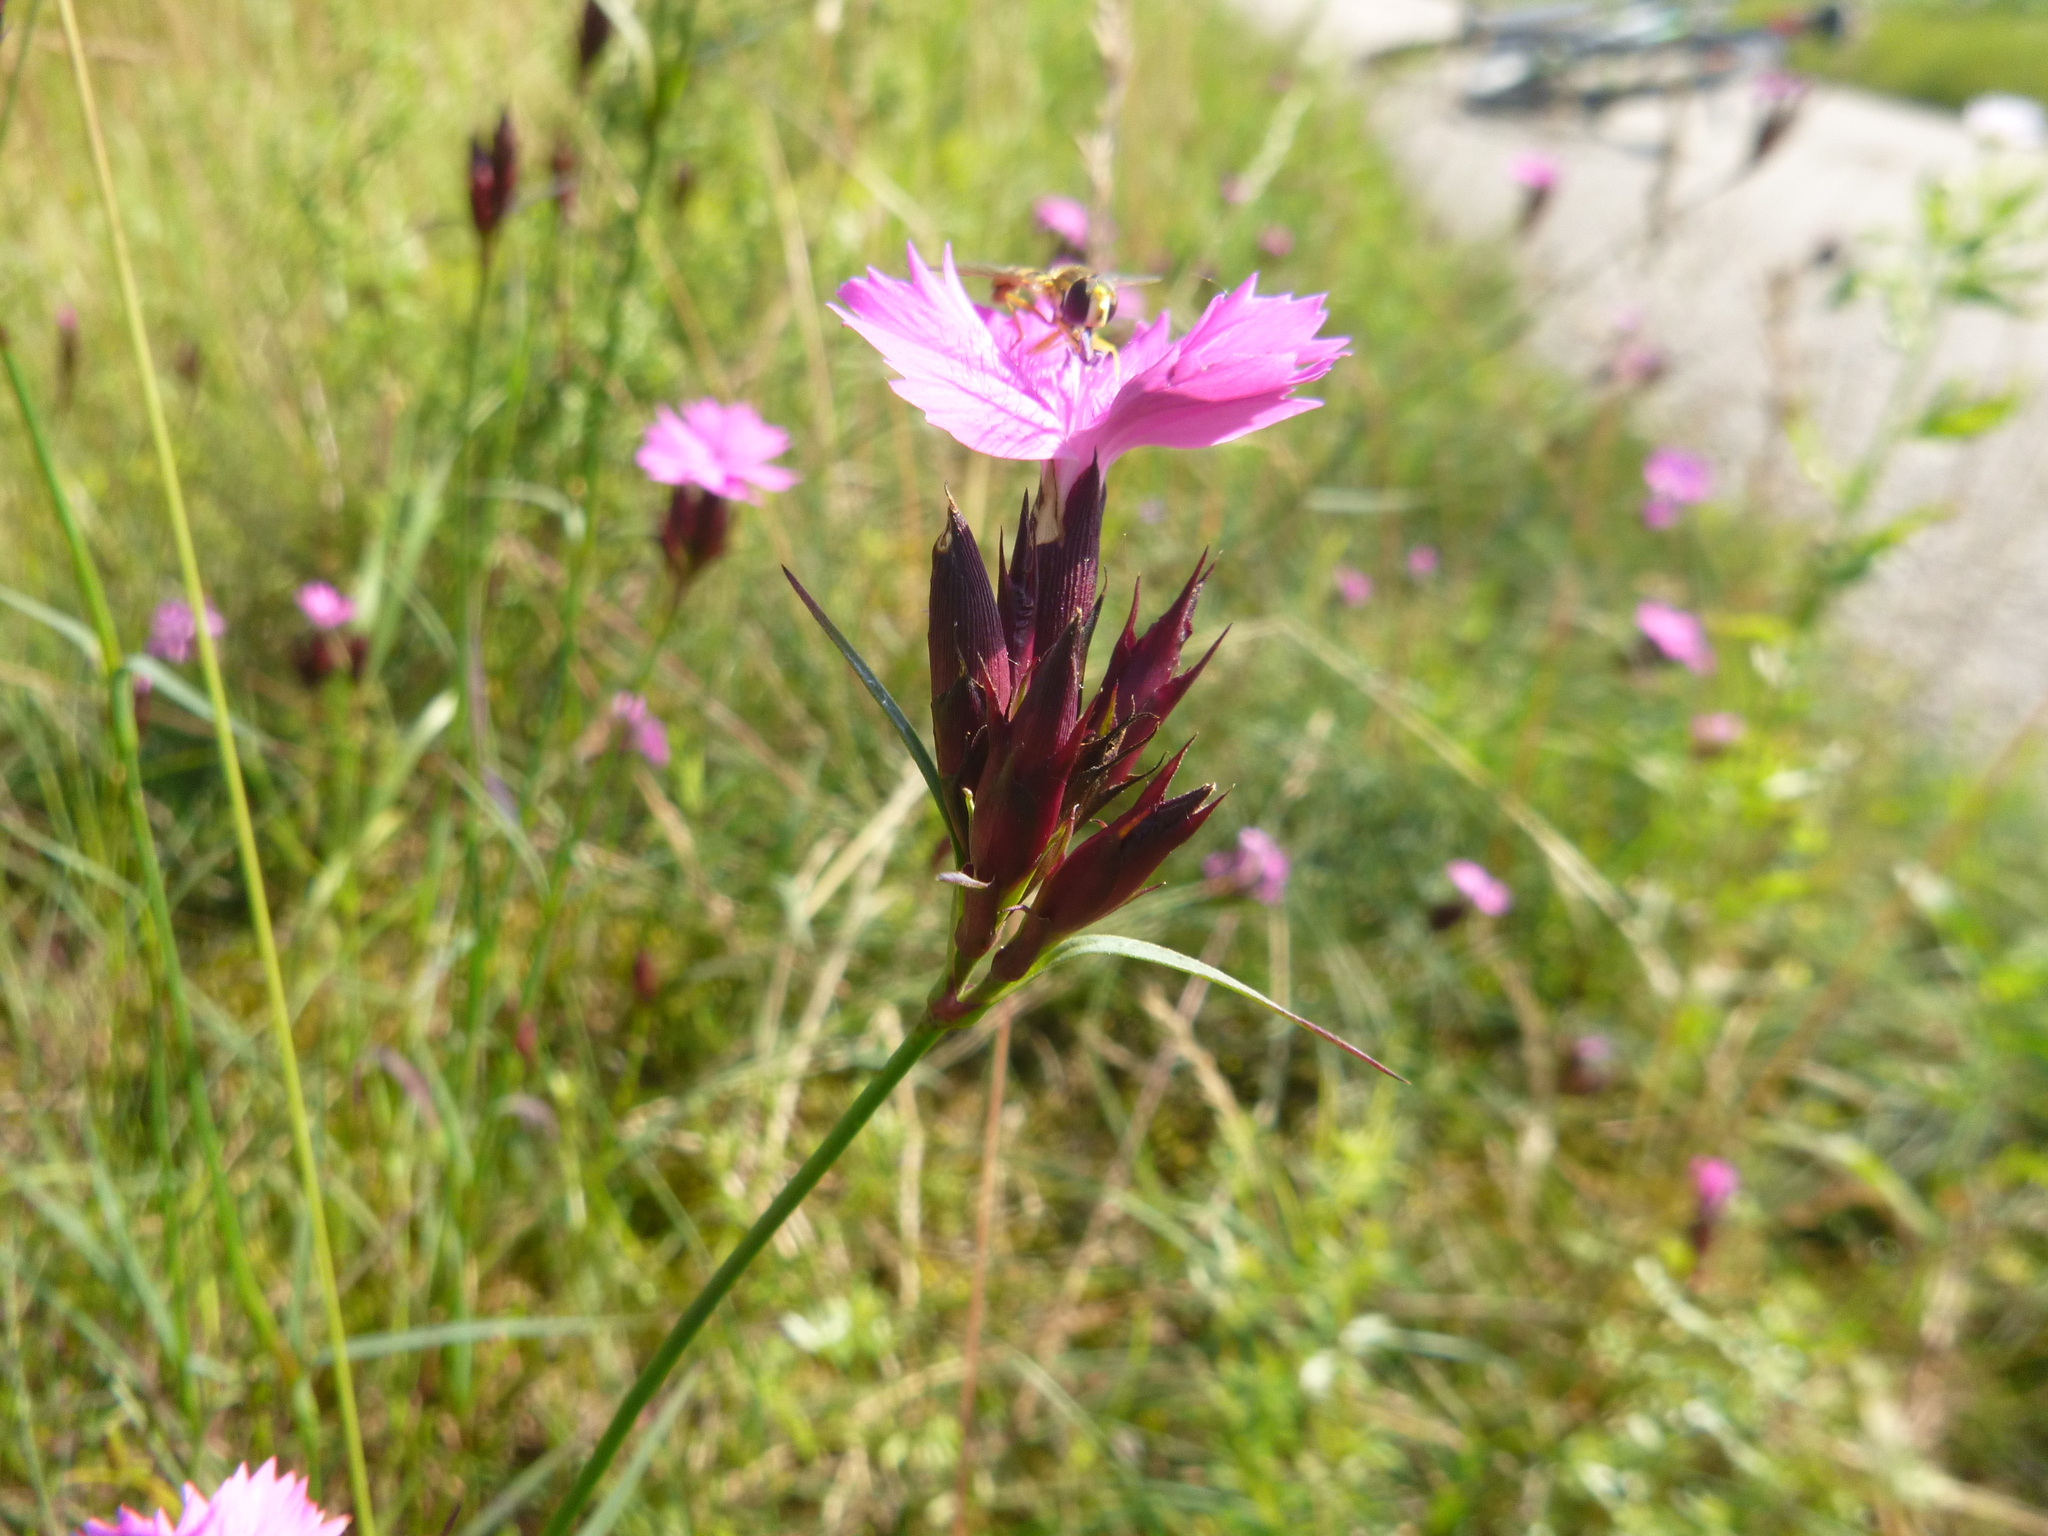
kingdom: Plantae
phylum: Tracheophyta
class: Magnoliopsida
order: Caryophyllales
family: Caryophyllaceae
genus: Dianthus
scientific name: Dianthus carthusianorum
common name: Carthusian pink
